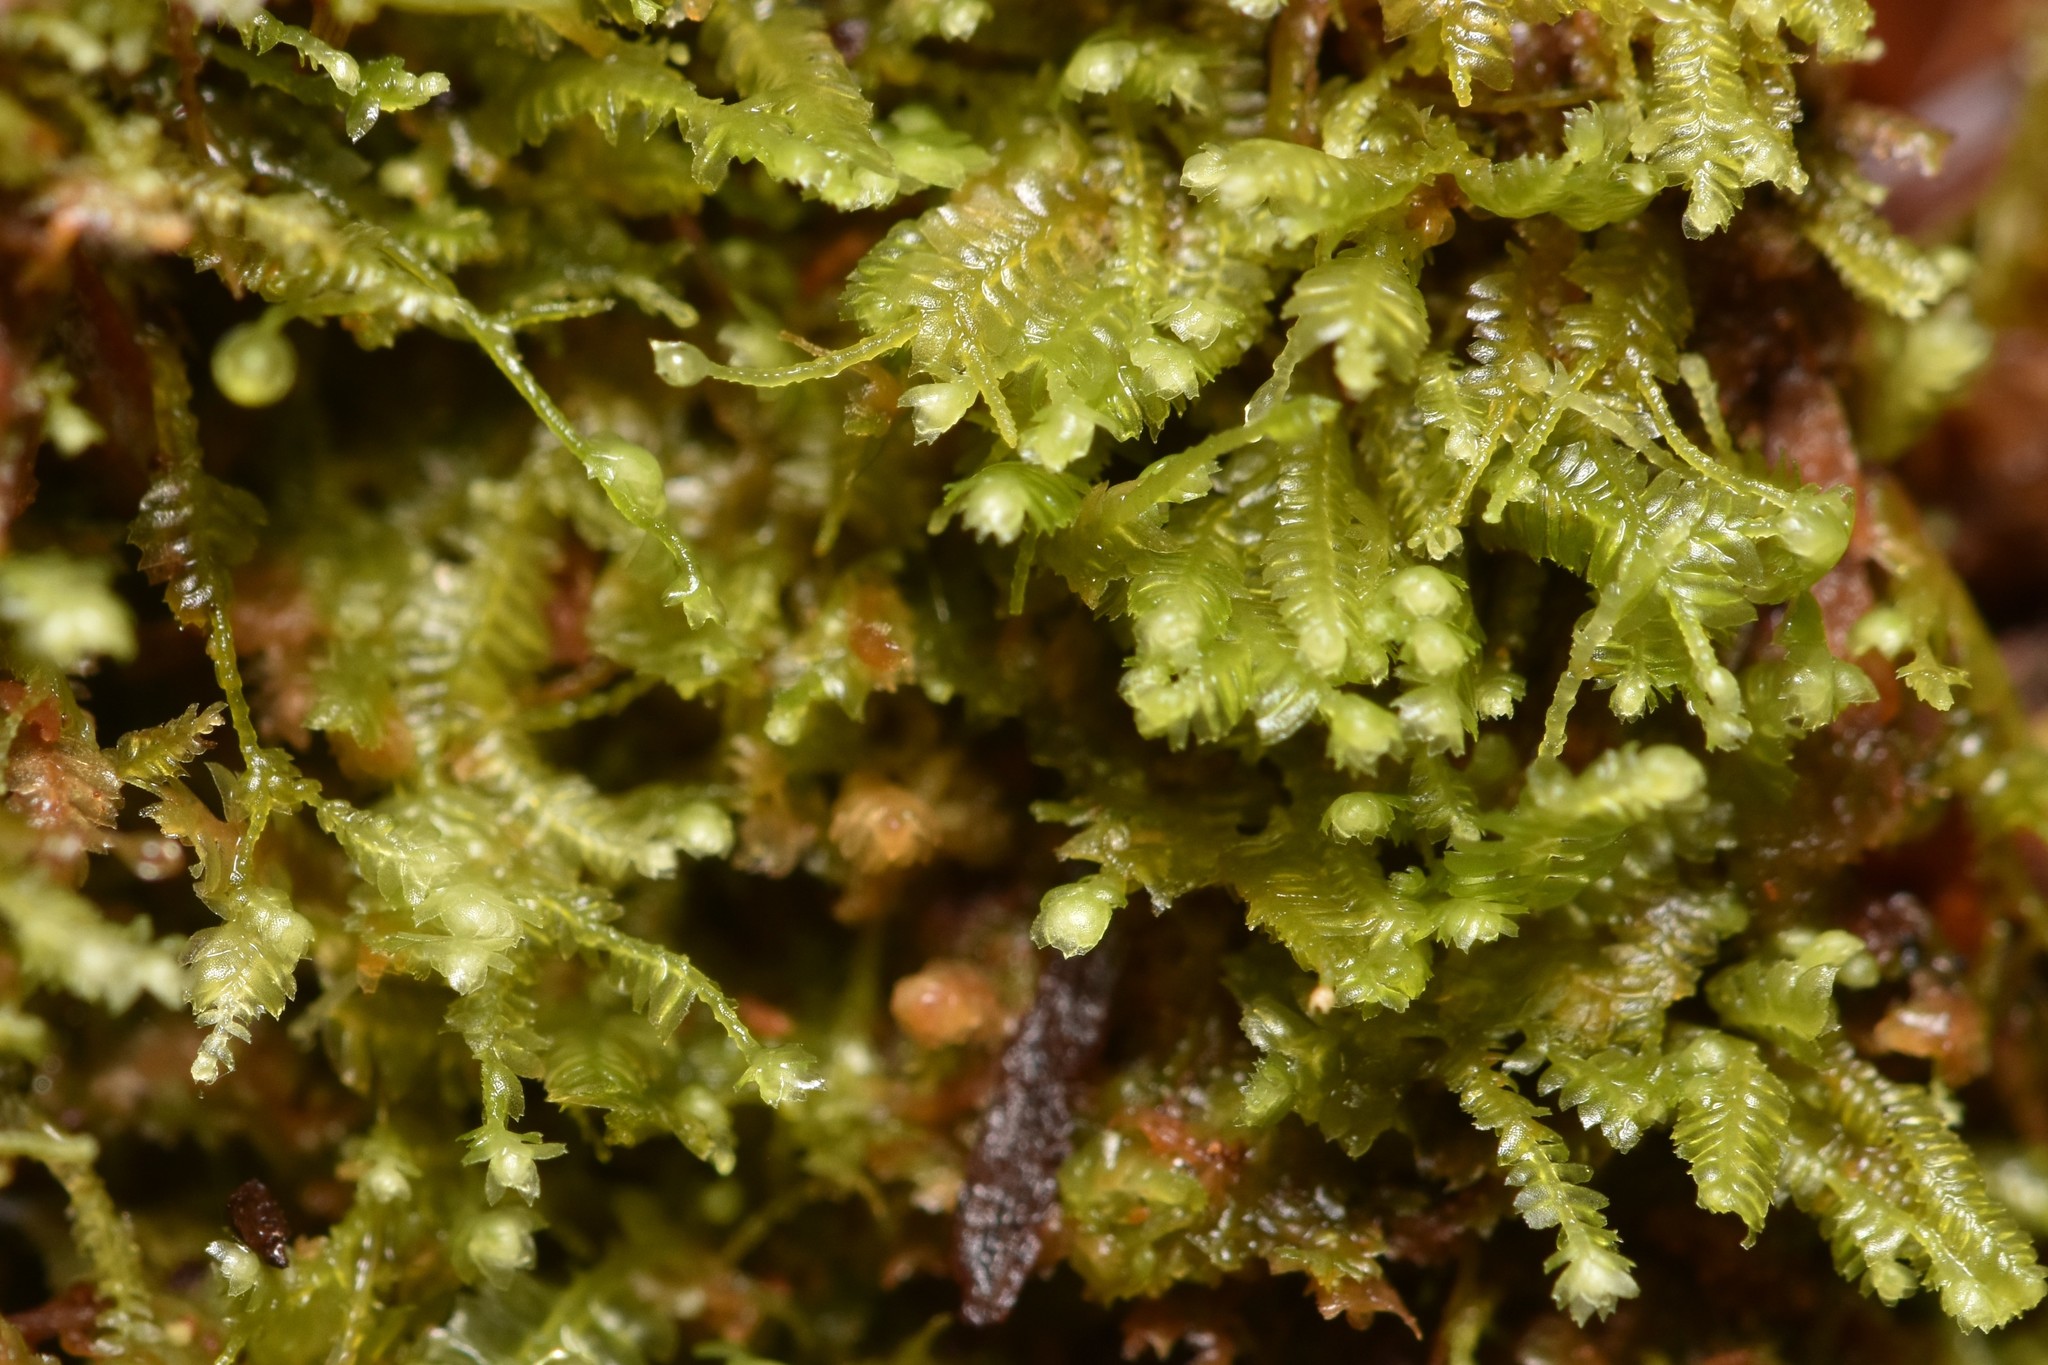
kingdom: Plantae
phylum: Marchantiophyta
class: Jungermanniopsida
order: Jungermanniales
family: Lepidoziaceae
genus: Bazzania
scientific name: Bazzania denudata
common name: Naked whipwort
